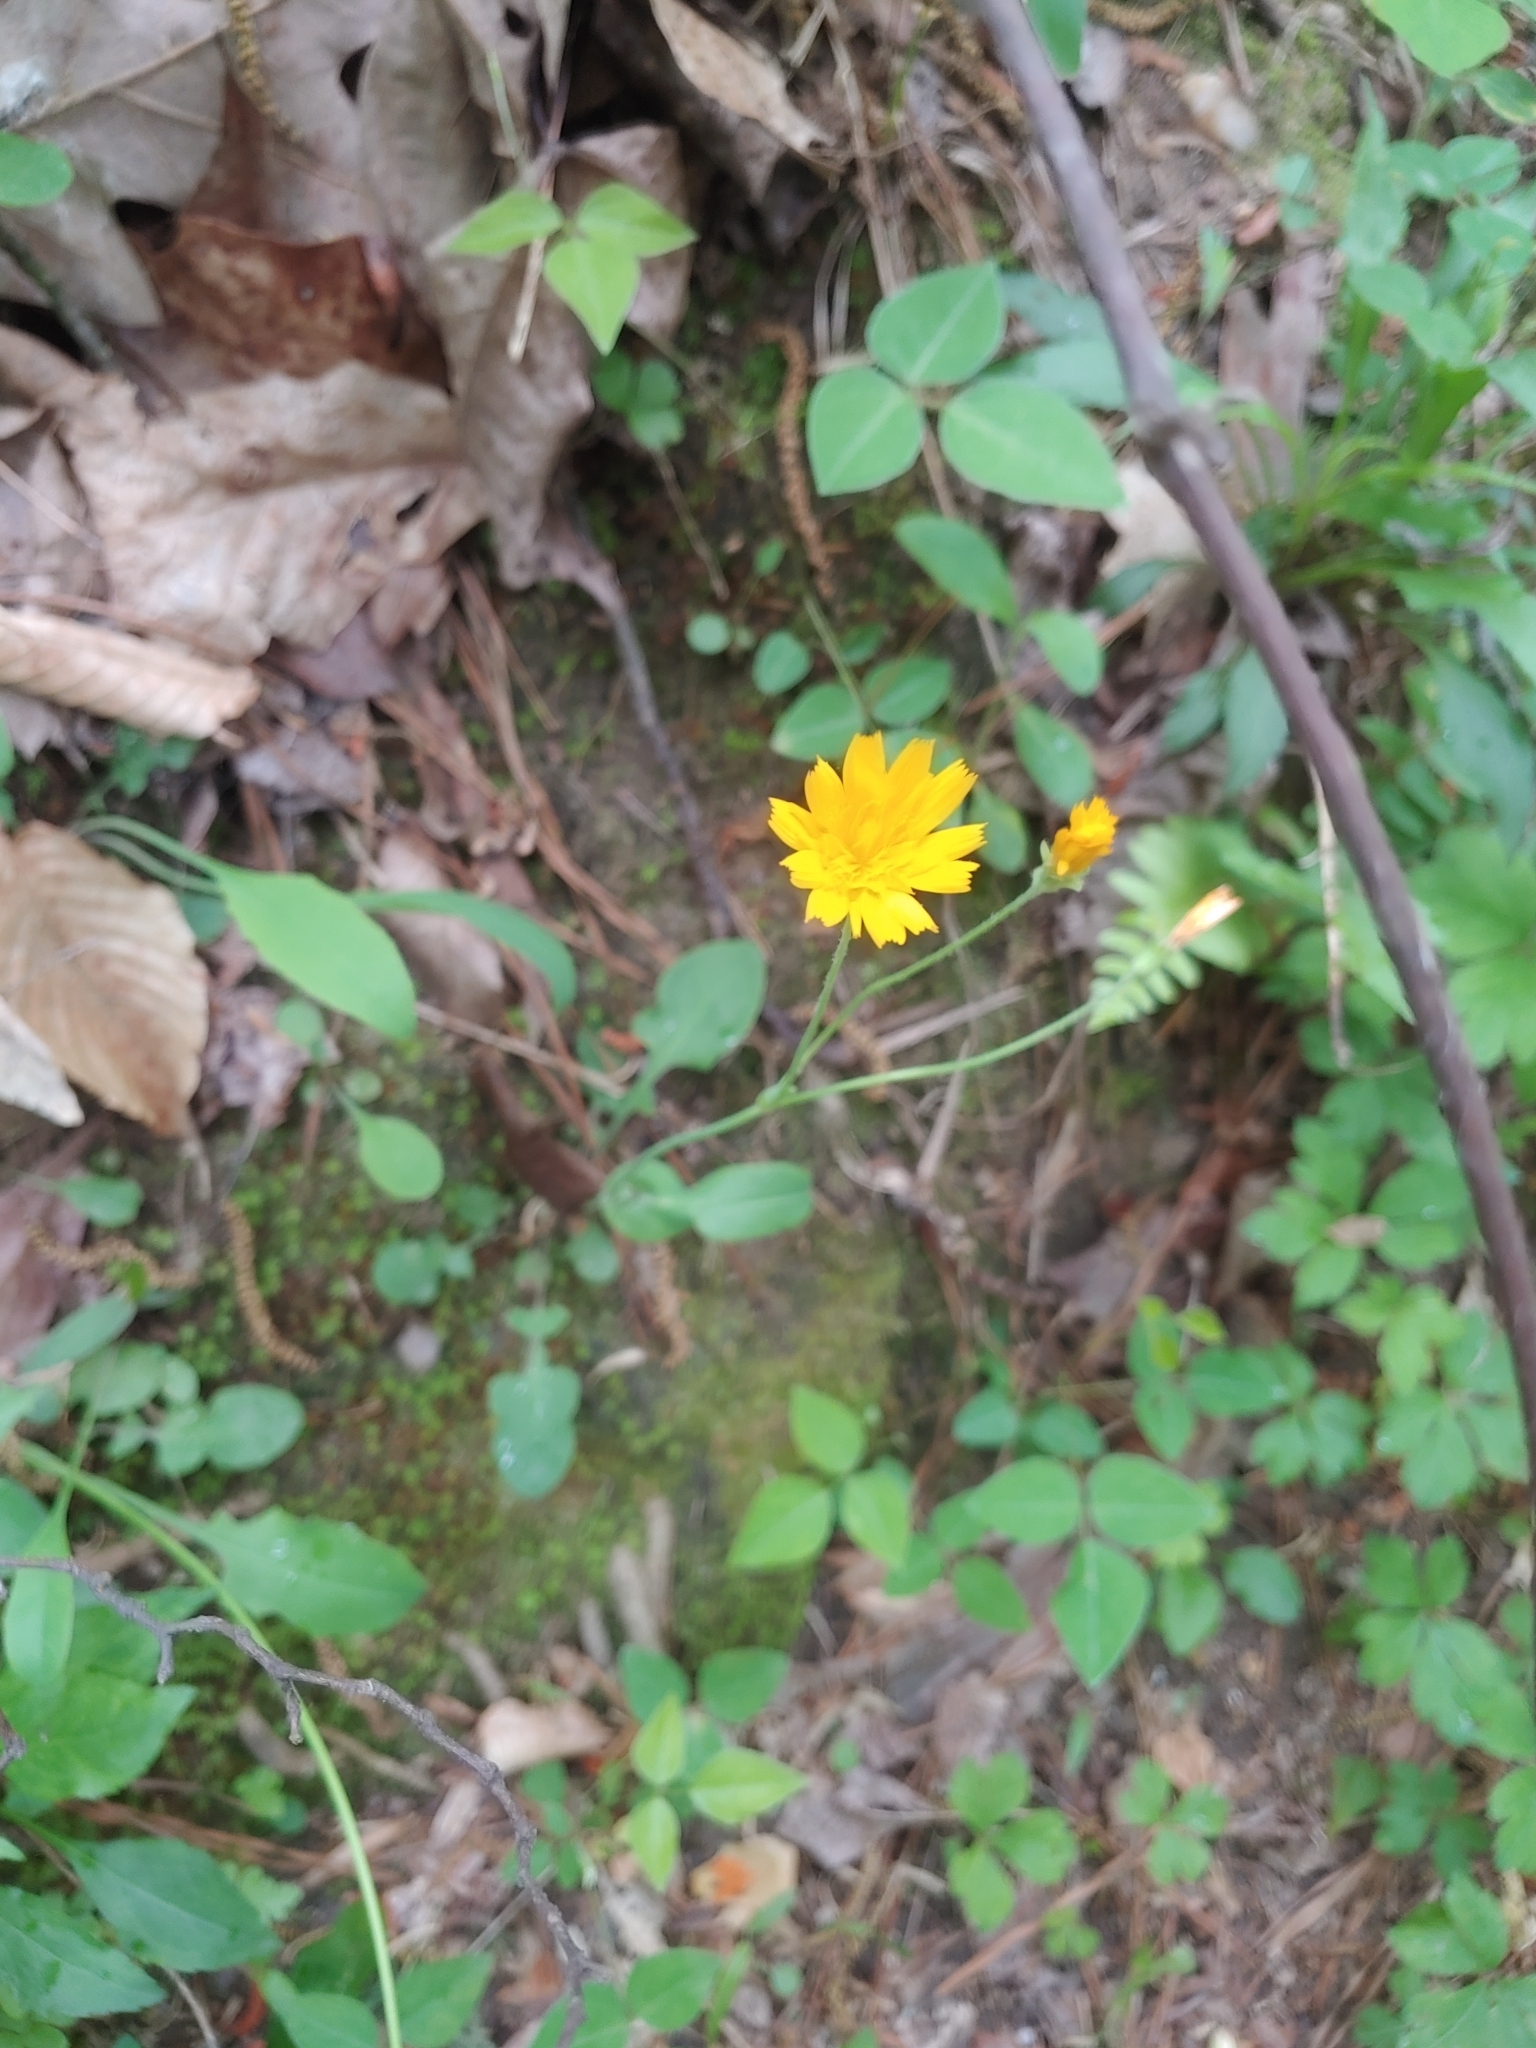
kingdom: Plantae
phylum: Tracheophyta
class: Magnoliopsida
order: Asterales
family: Asteraceae
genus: Krigia
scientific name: Krigia biflora
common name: Orange dwarf-dandelion
